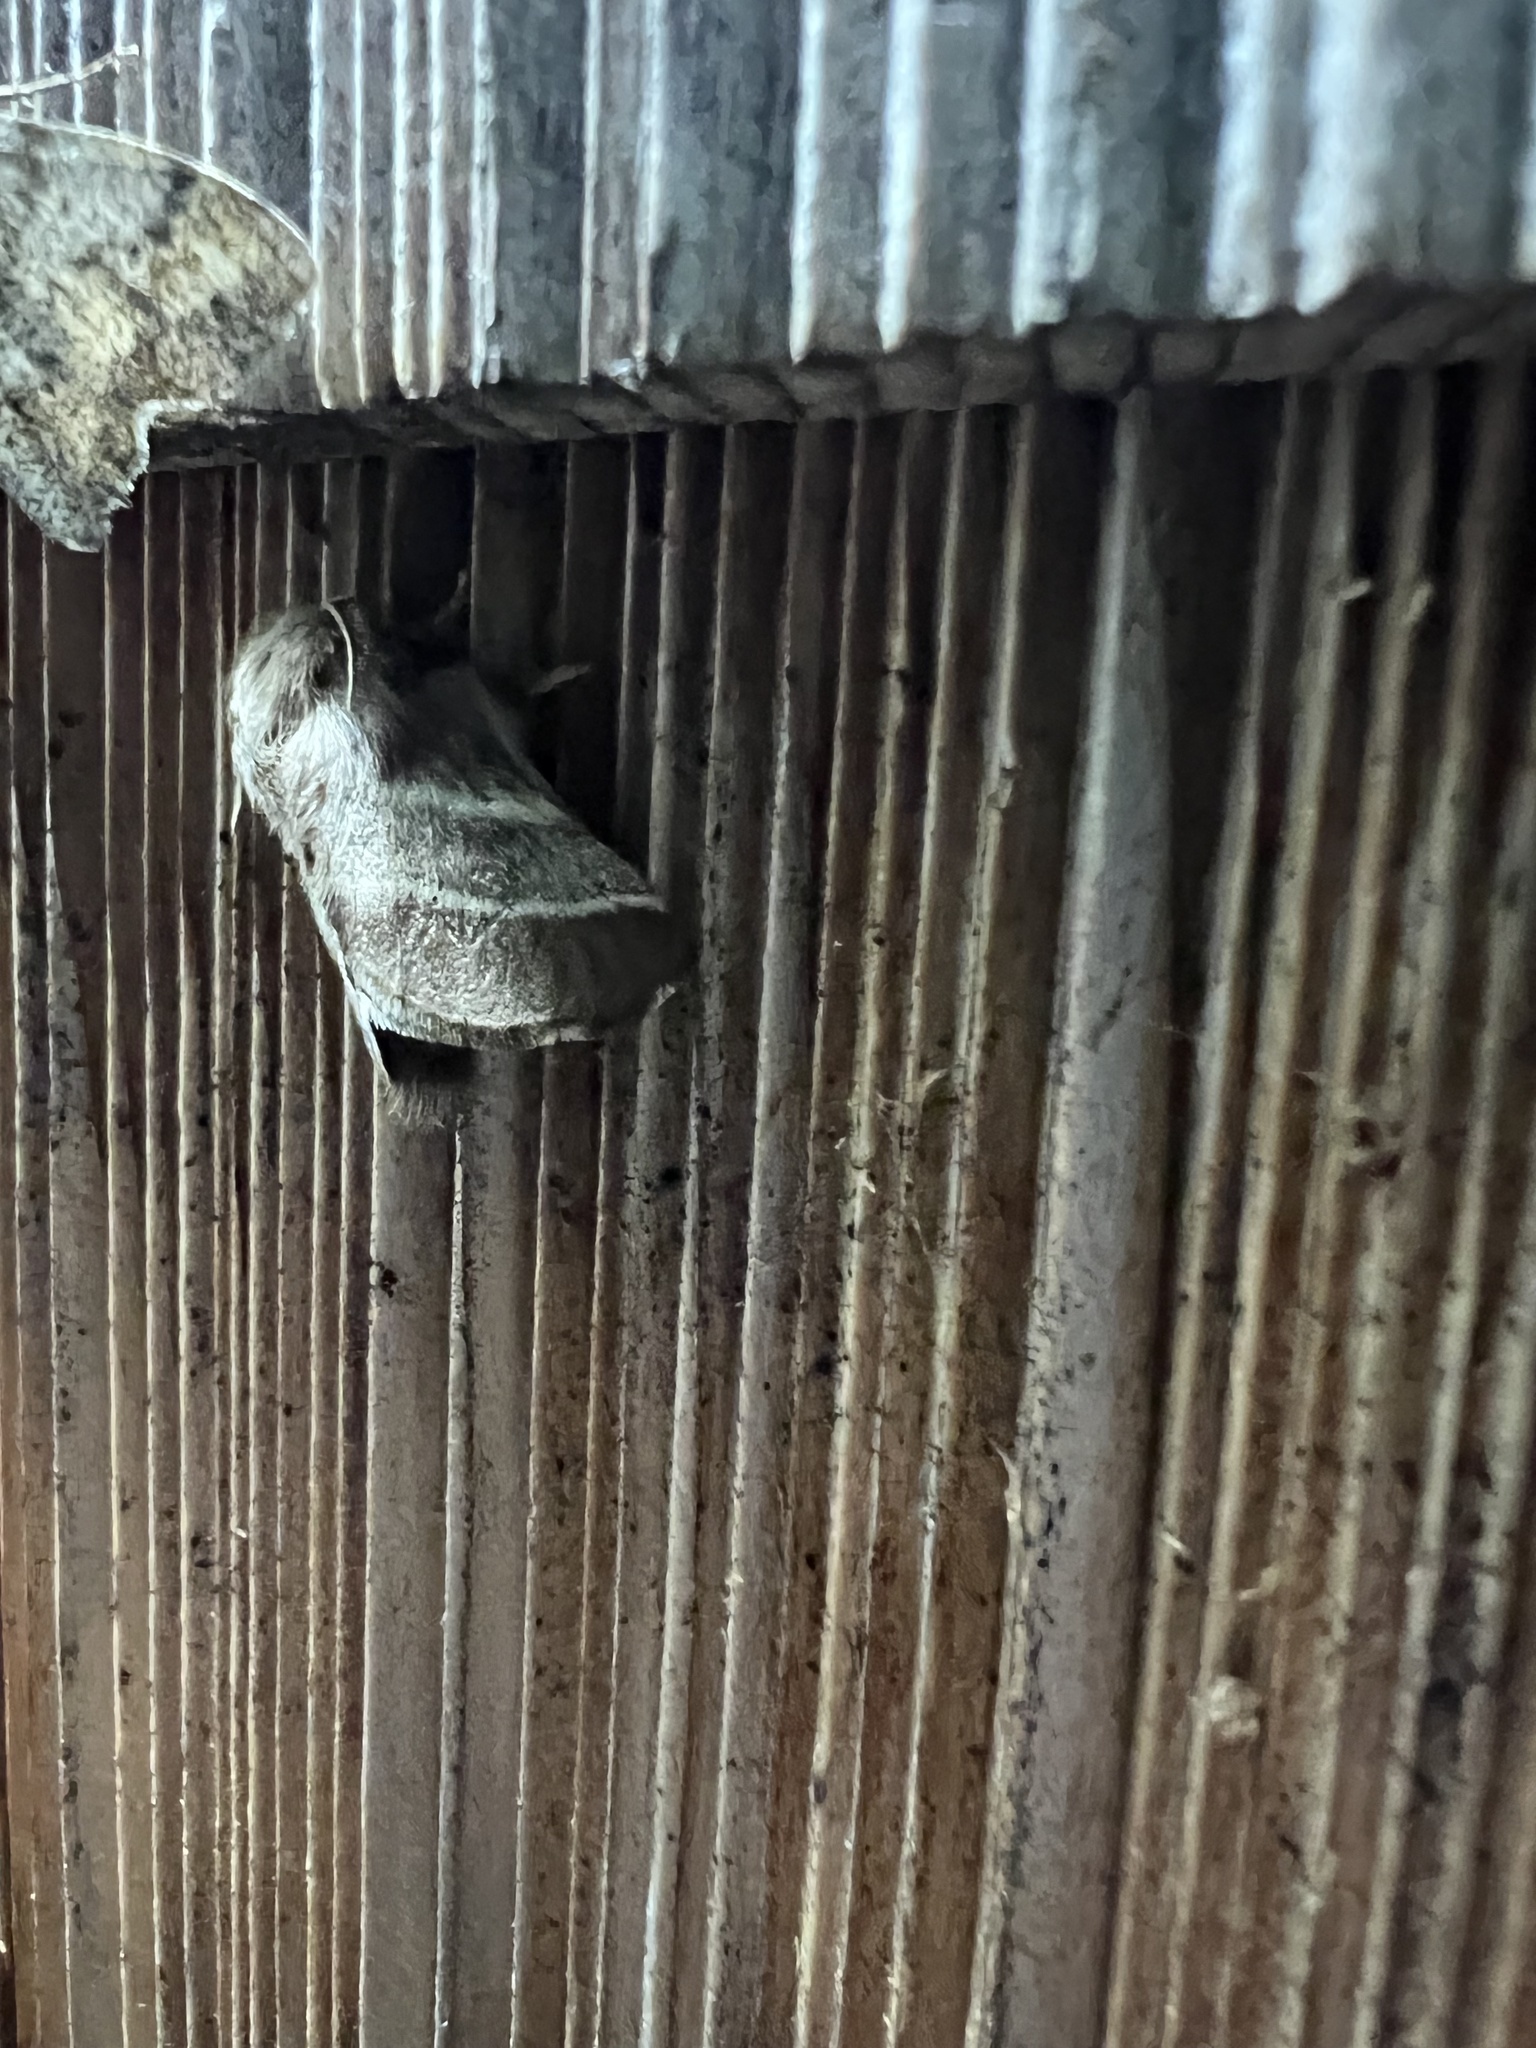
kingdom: Animalia
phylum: Arthropoda
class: Insecta
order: Lepidoptera
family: Lasiocampidae
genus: Malacosoma
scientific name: Malacosoma americana
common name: Eastern tent caterpillar moth
